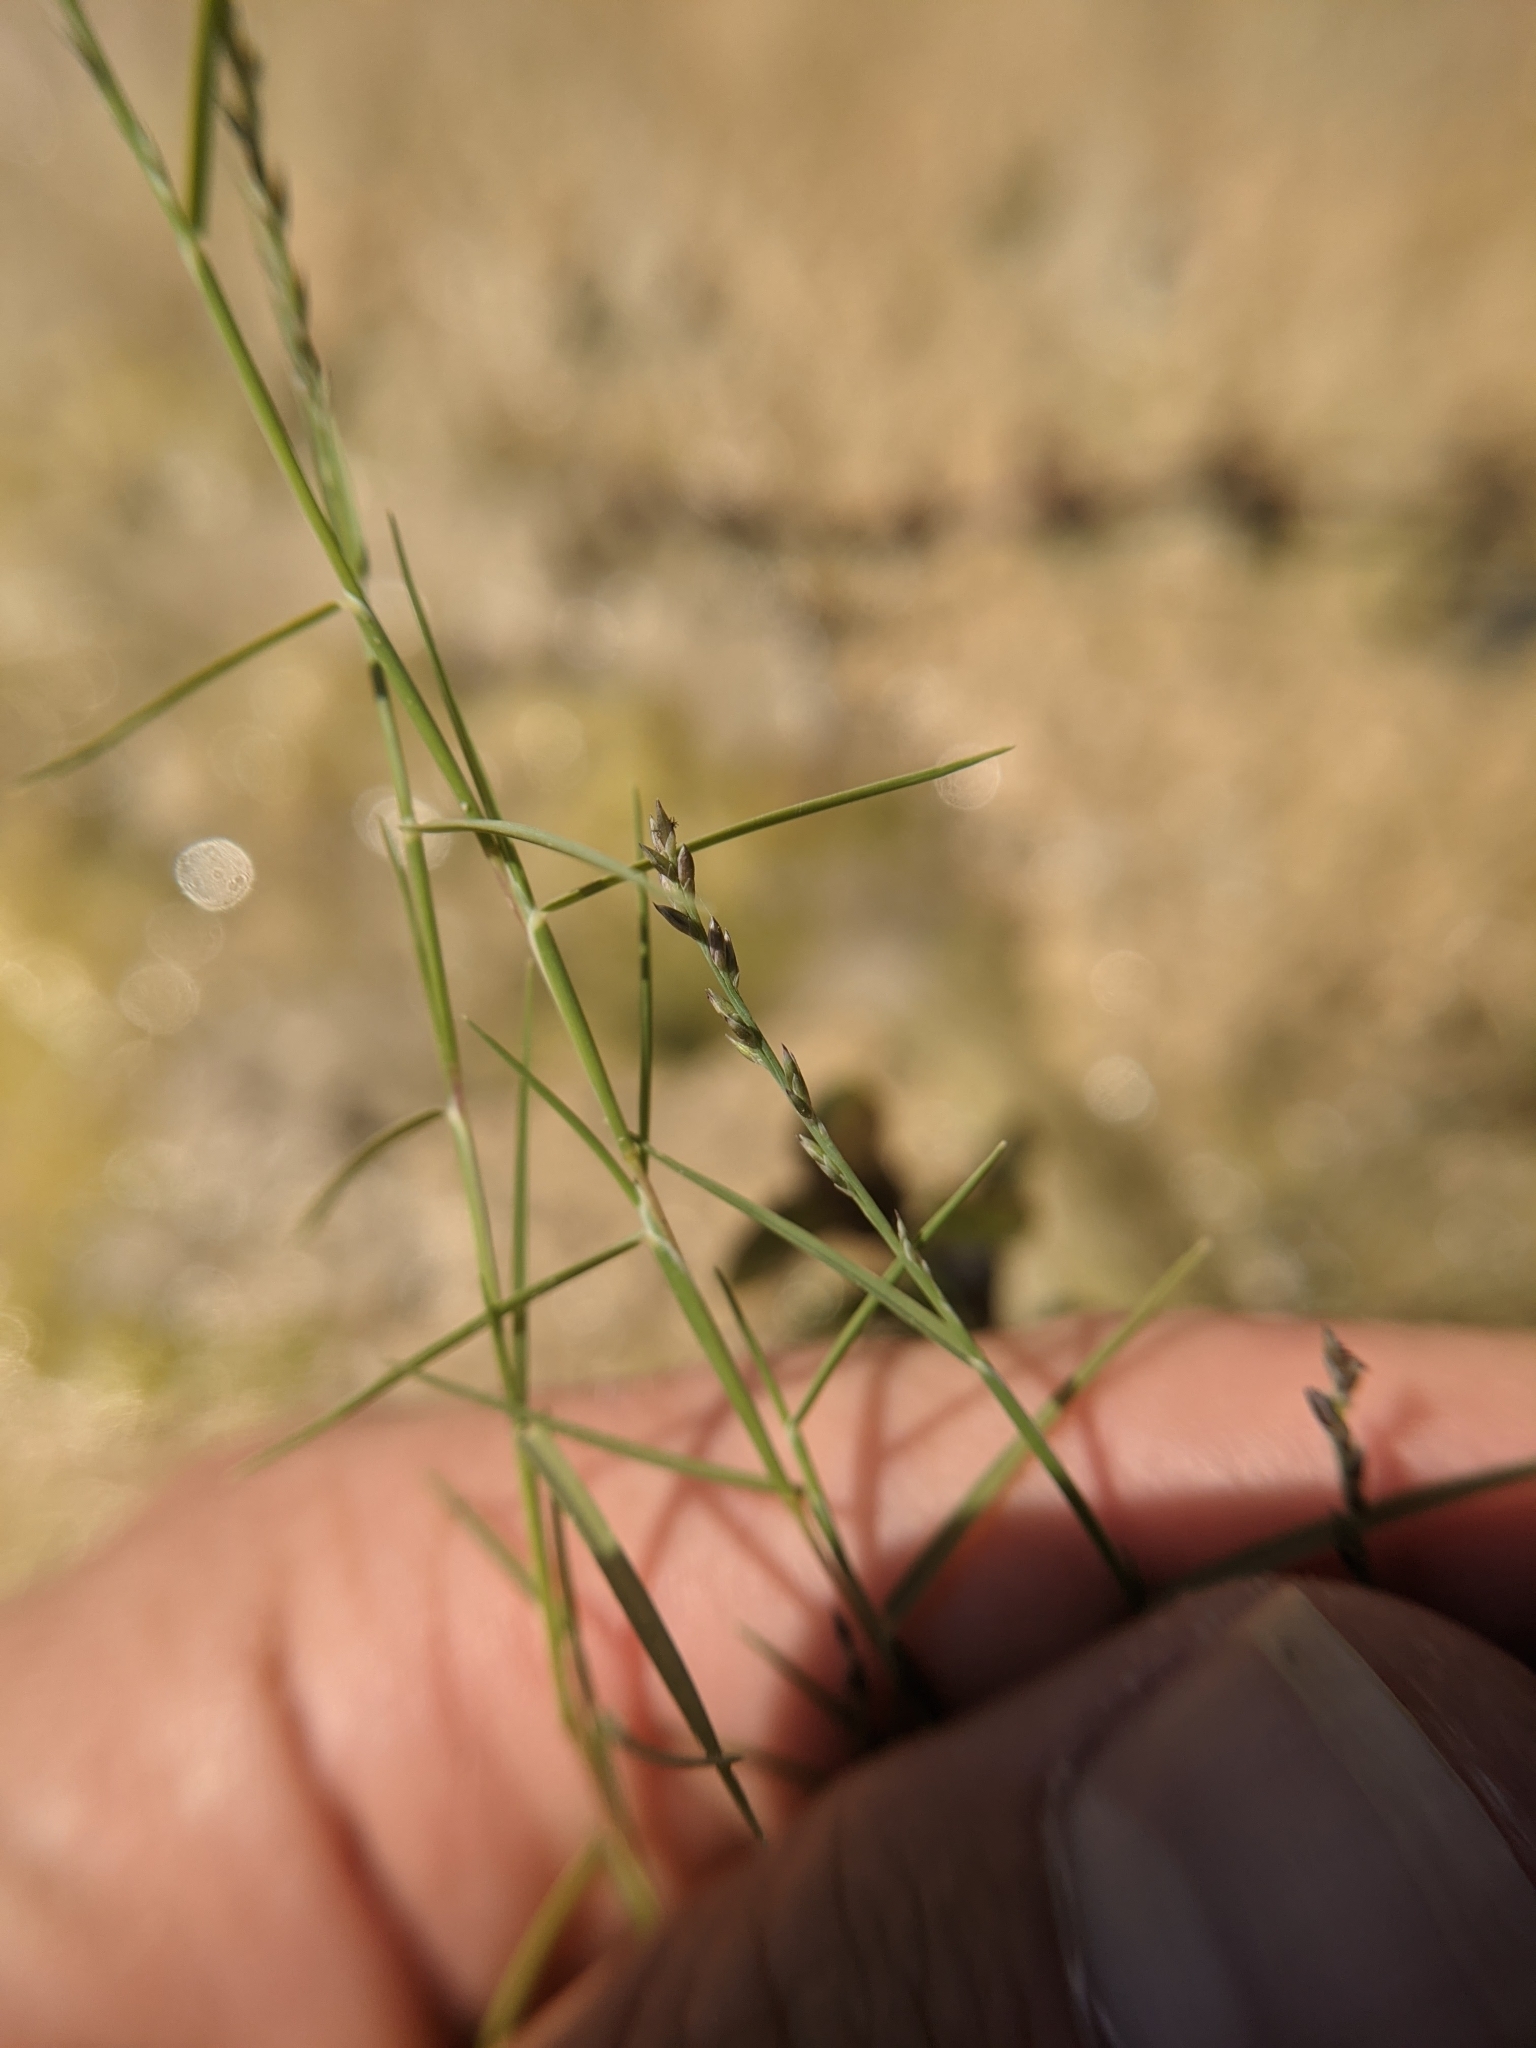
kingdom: Plantae
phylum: Tracheophyta
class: Liliopsida
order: Poales
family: Poaceae
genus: Muhlenbergia
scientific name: Muhlenbergia utilis
